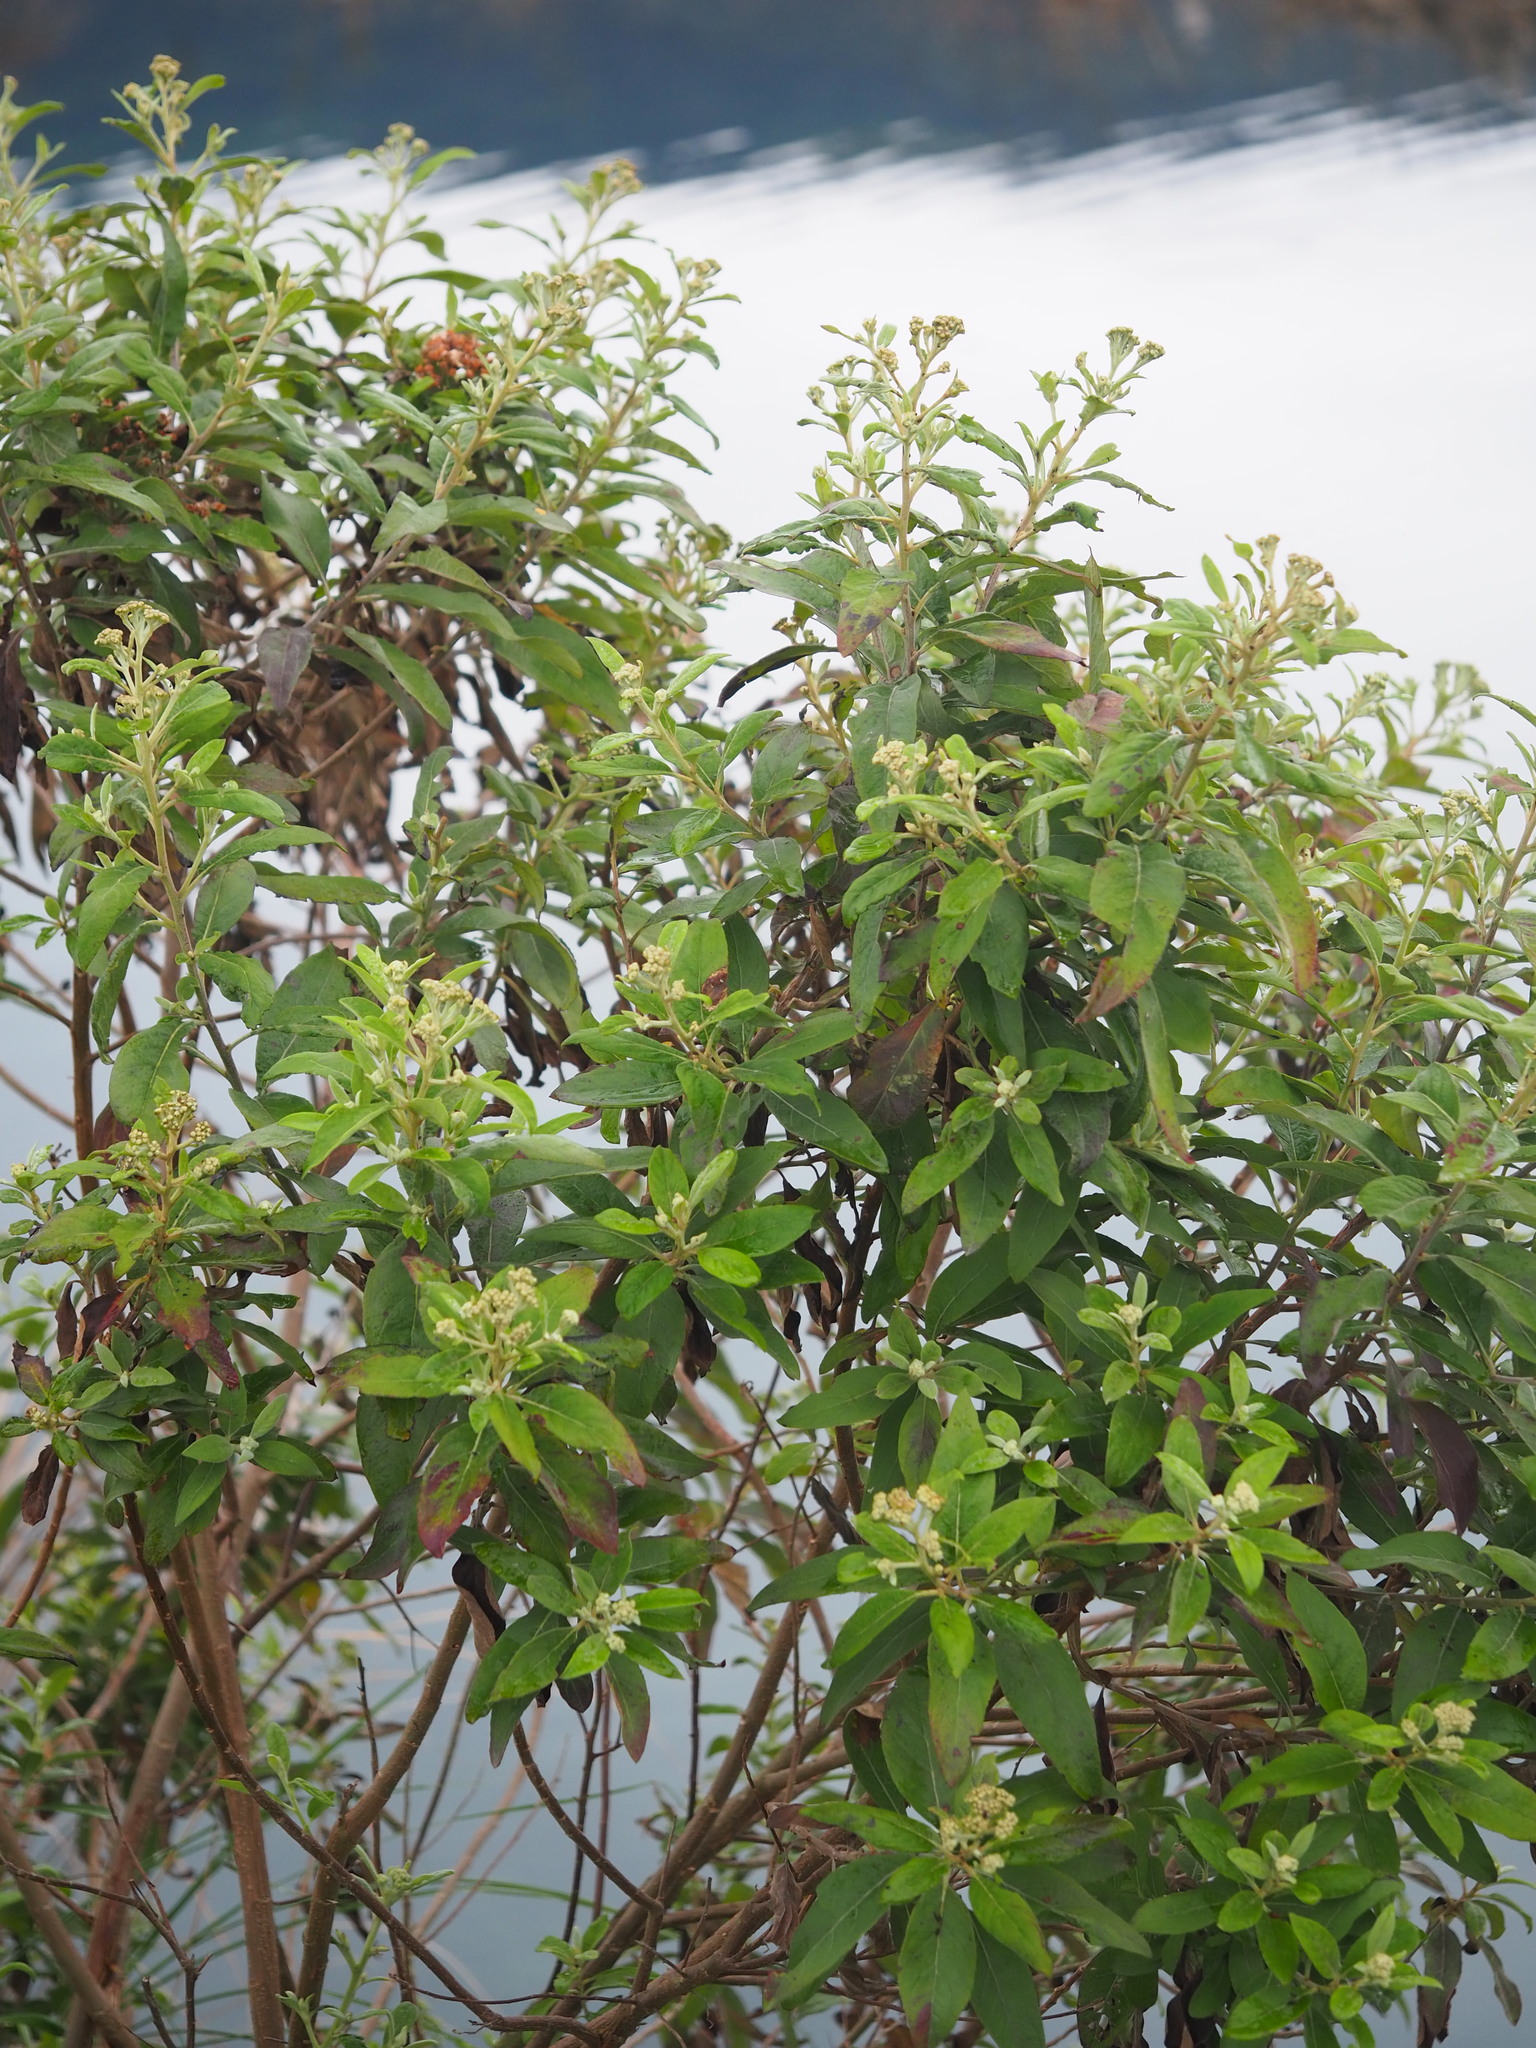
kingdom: Plantae
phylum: Tracheophyta
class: Magnoliopsida
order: Asterales
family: Asteraceae
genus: Pluchea
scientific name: Pluchea carolinensis
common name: Marsh fleabane
